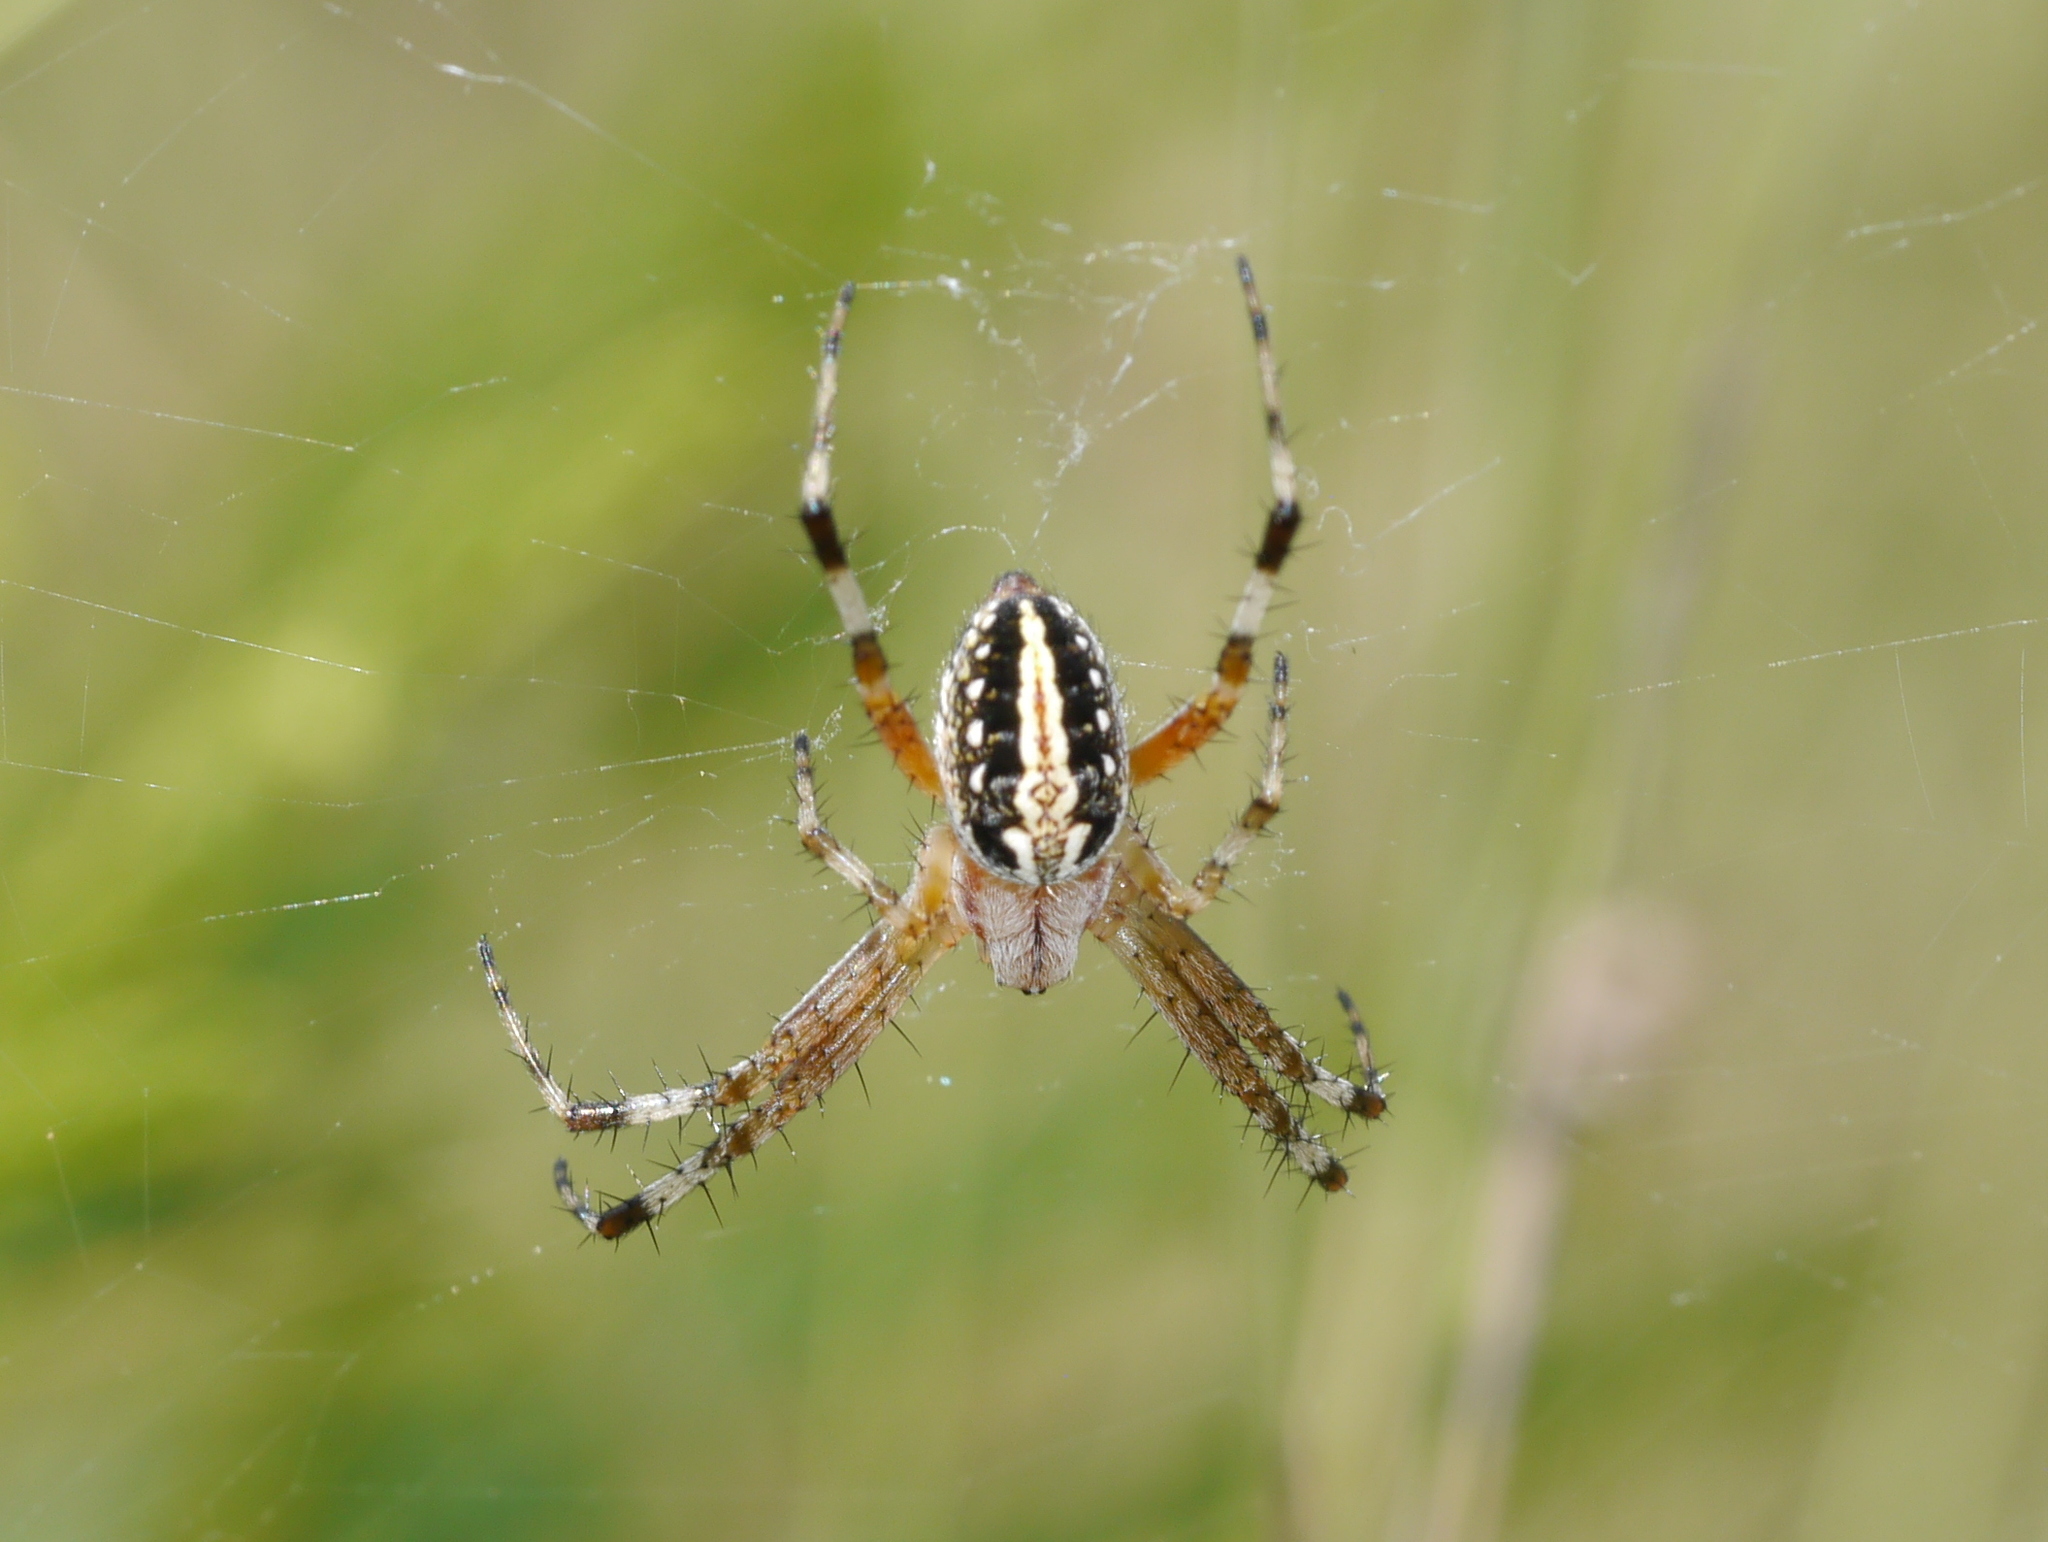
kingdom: Animalia
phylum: Arthropoda
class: Arachnida
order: Araneae
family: Araneidae
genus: Neoscona
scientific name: Neoscona oaxacensis
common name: Orb weavers
